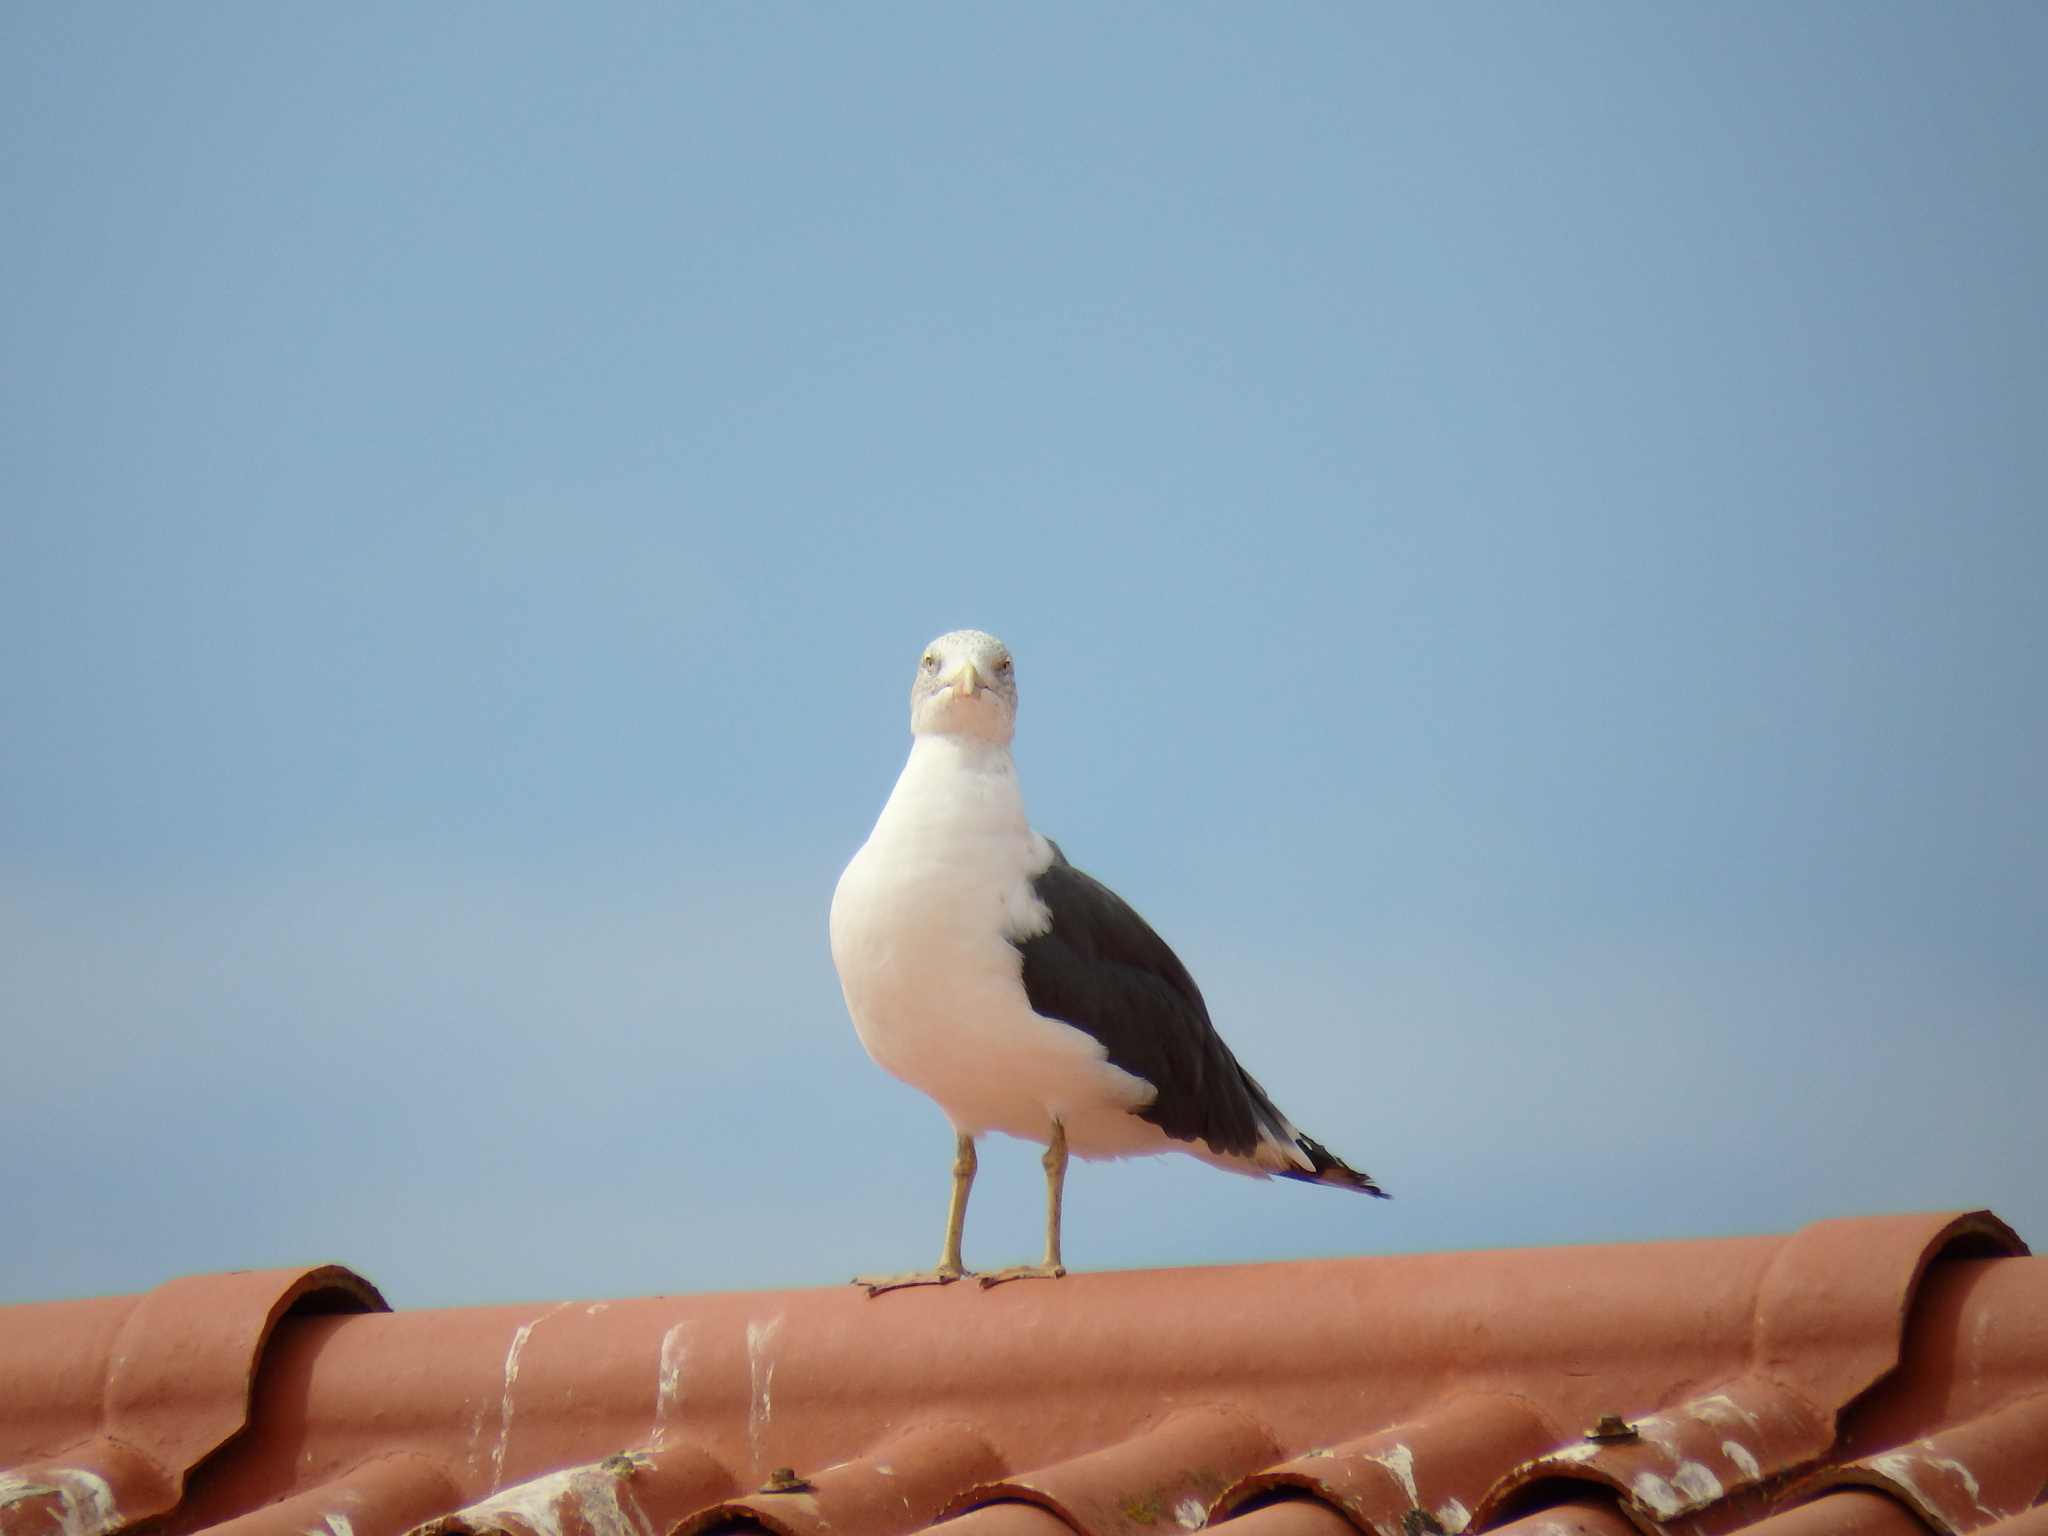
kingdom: Animalia
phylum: Chordata
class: Aves
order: Charadriiformes
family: Laridae
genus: Larus
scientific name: Larus fuscus
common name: Lesser black-backed gull
